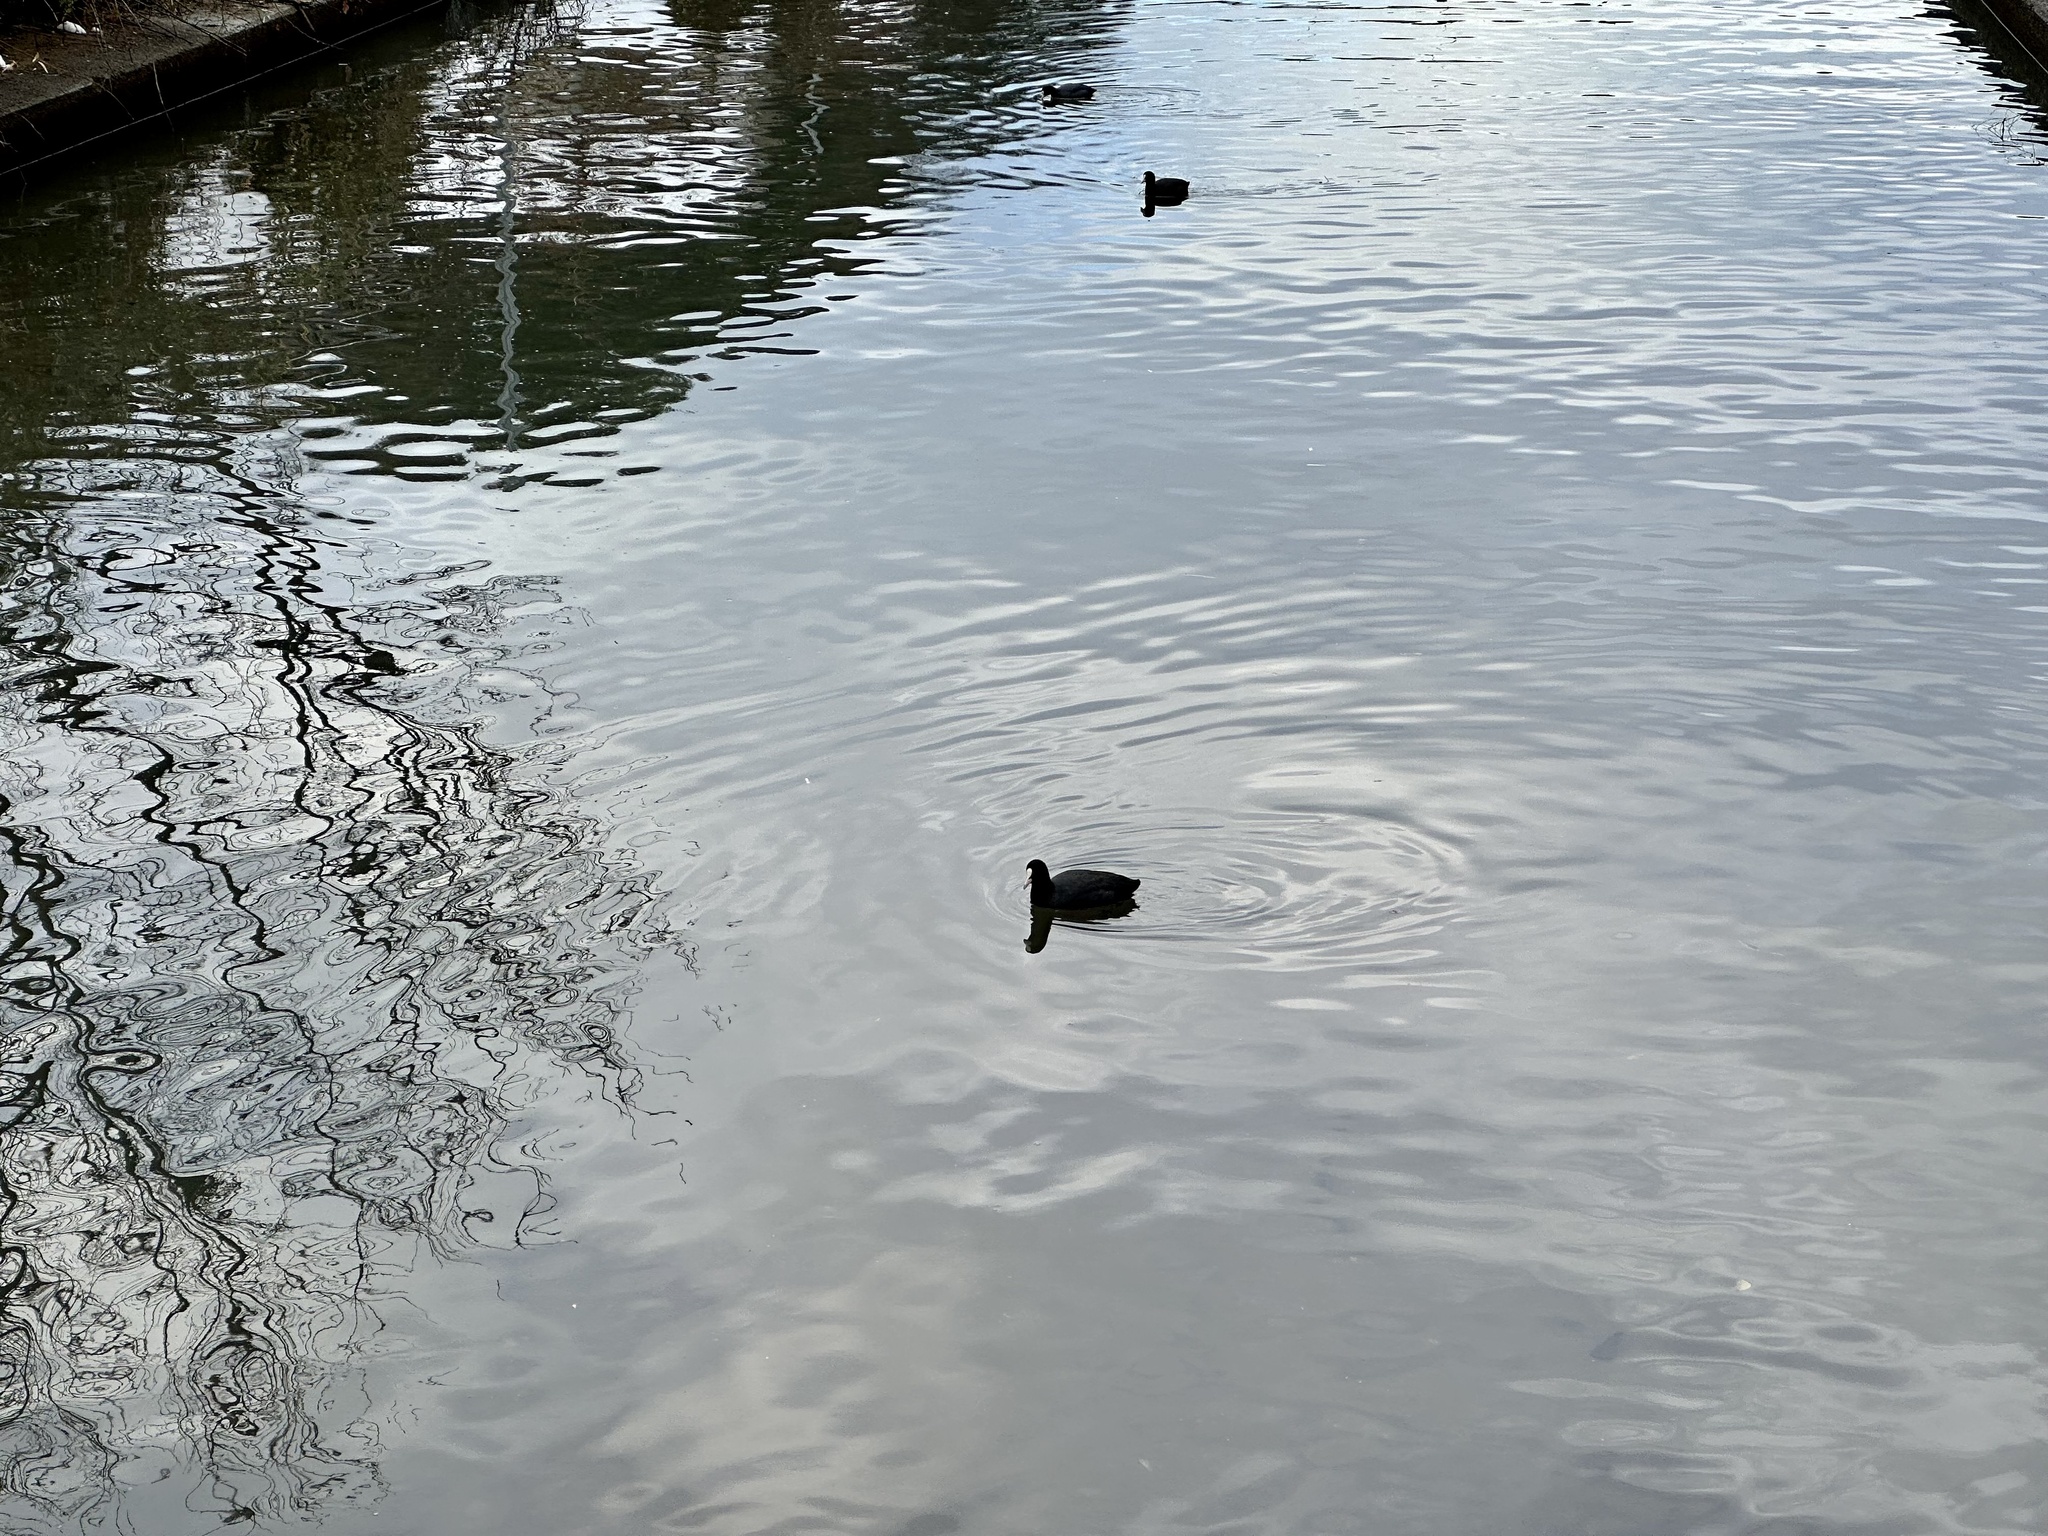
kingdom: Animalia
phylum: Chordata
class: Aves
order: Gruiformes
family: Rallidae
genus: Fulica
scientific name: Fulica atra
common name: Eurasian coot
